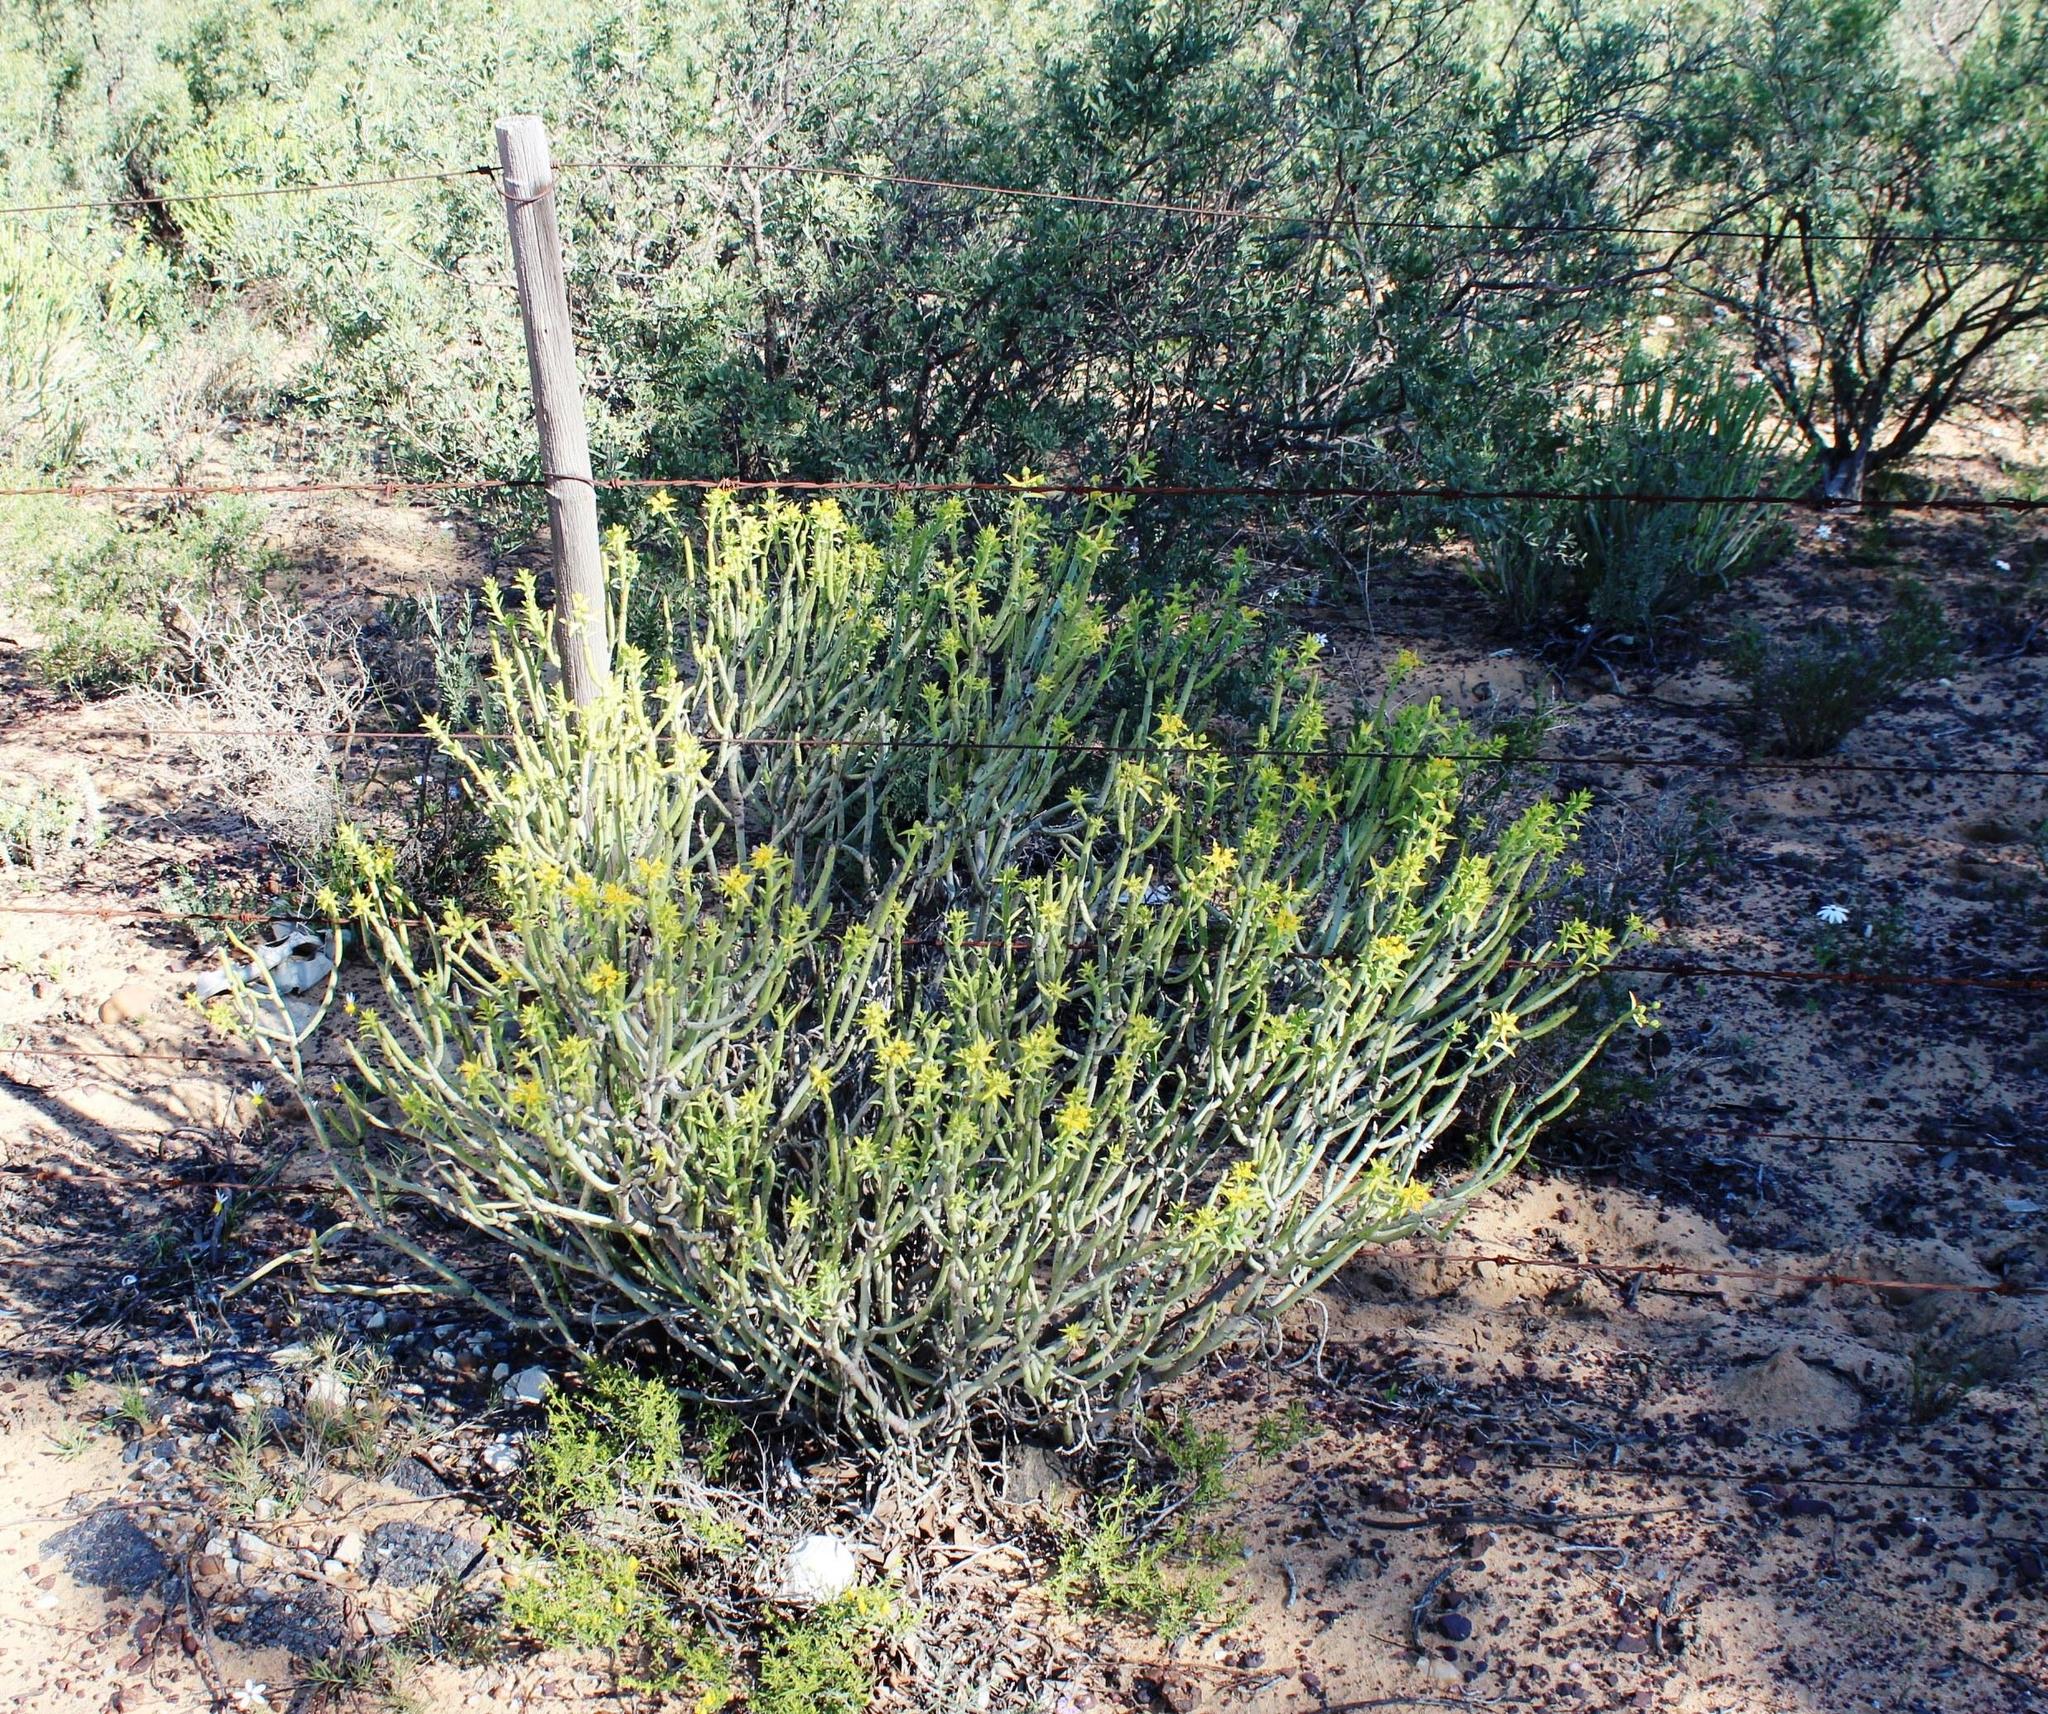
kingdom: Plantae
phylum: Tracheophyta
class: Magnoliopsida
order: Malpighiales
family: Euphorbiaceae
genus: Euphorbia
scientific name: Euphorbia mauritanica
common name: Jackal's-food
